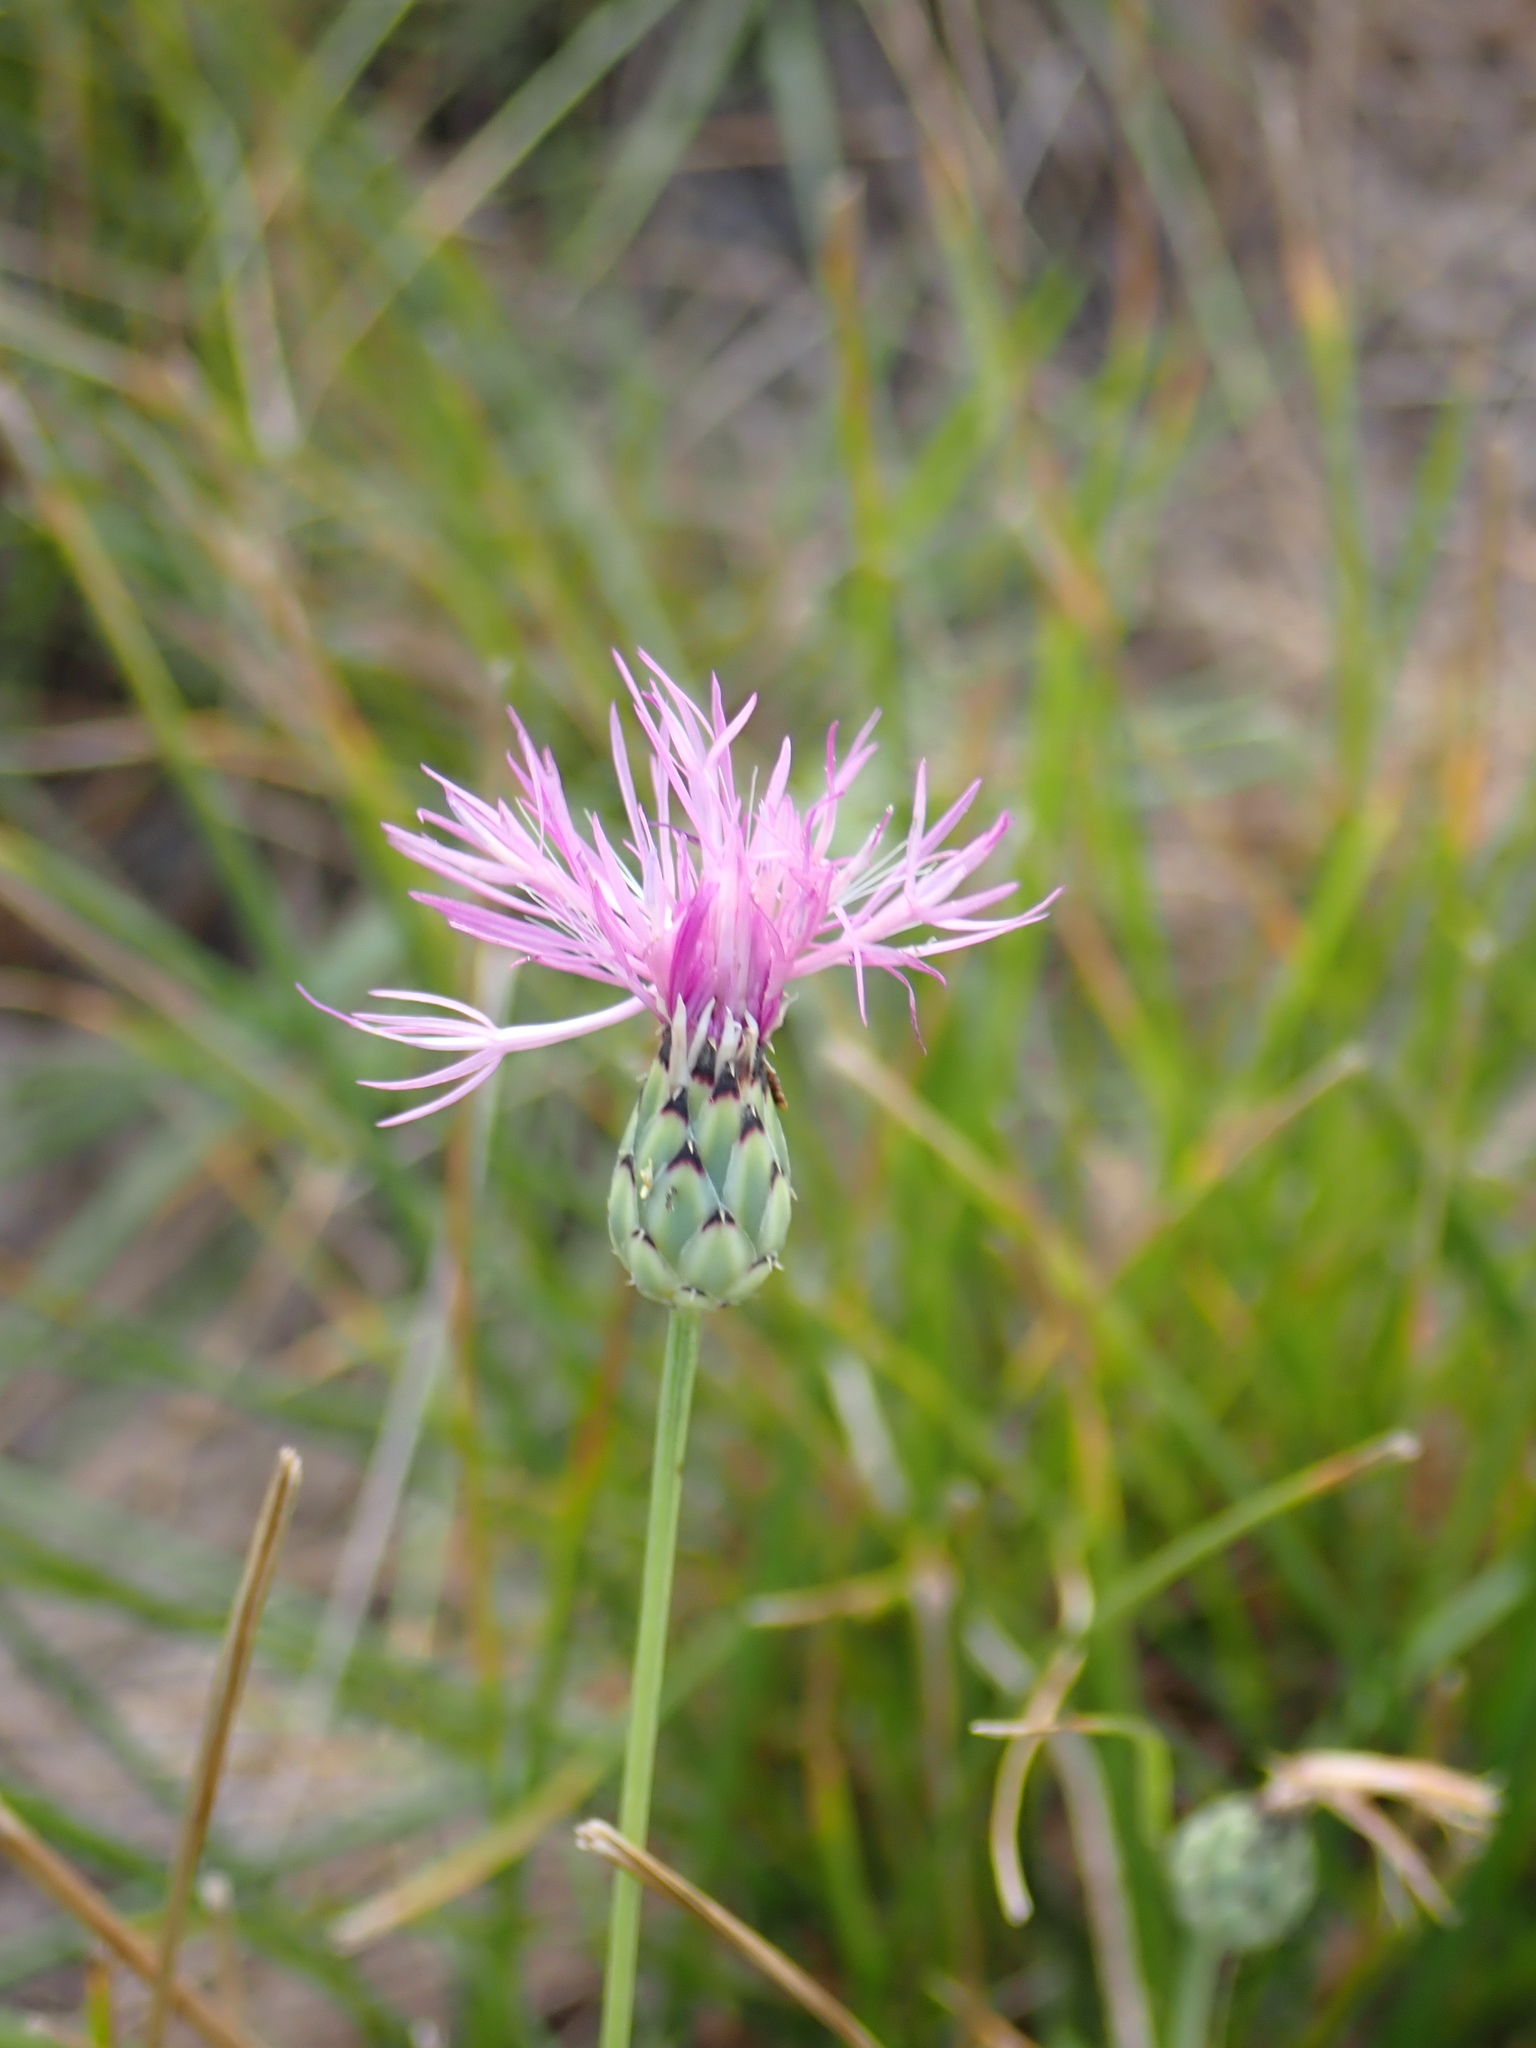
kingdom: Plantae
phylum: Tracheophyta
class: Magnoliopsida
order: Asterales
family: Asteraceae
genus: Mantisalca
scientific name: Mantisalca salmantica
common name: Dagger flower
